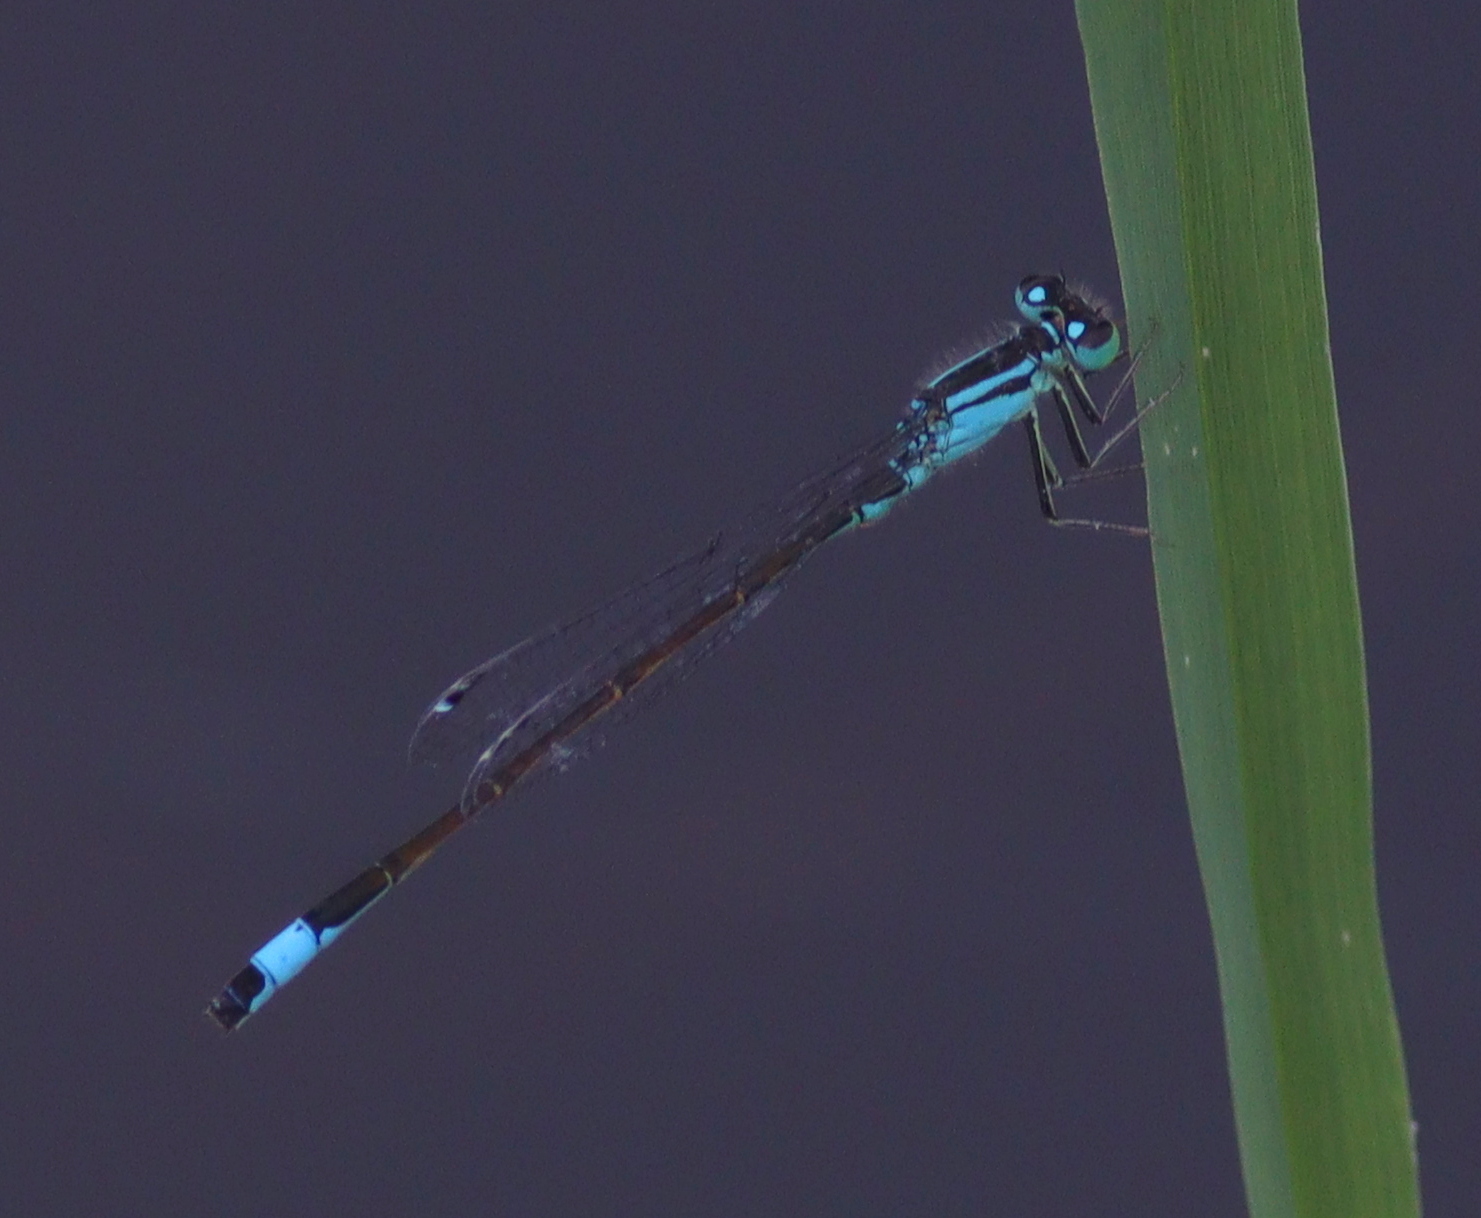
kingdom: Animalia
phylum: Arthropoda
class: Insecta
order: Odonata
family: Coenagrionidae
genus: Ischnura
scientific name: Ischnura elegans
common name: Blue-tailed damselfly
